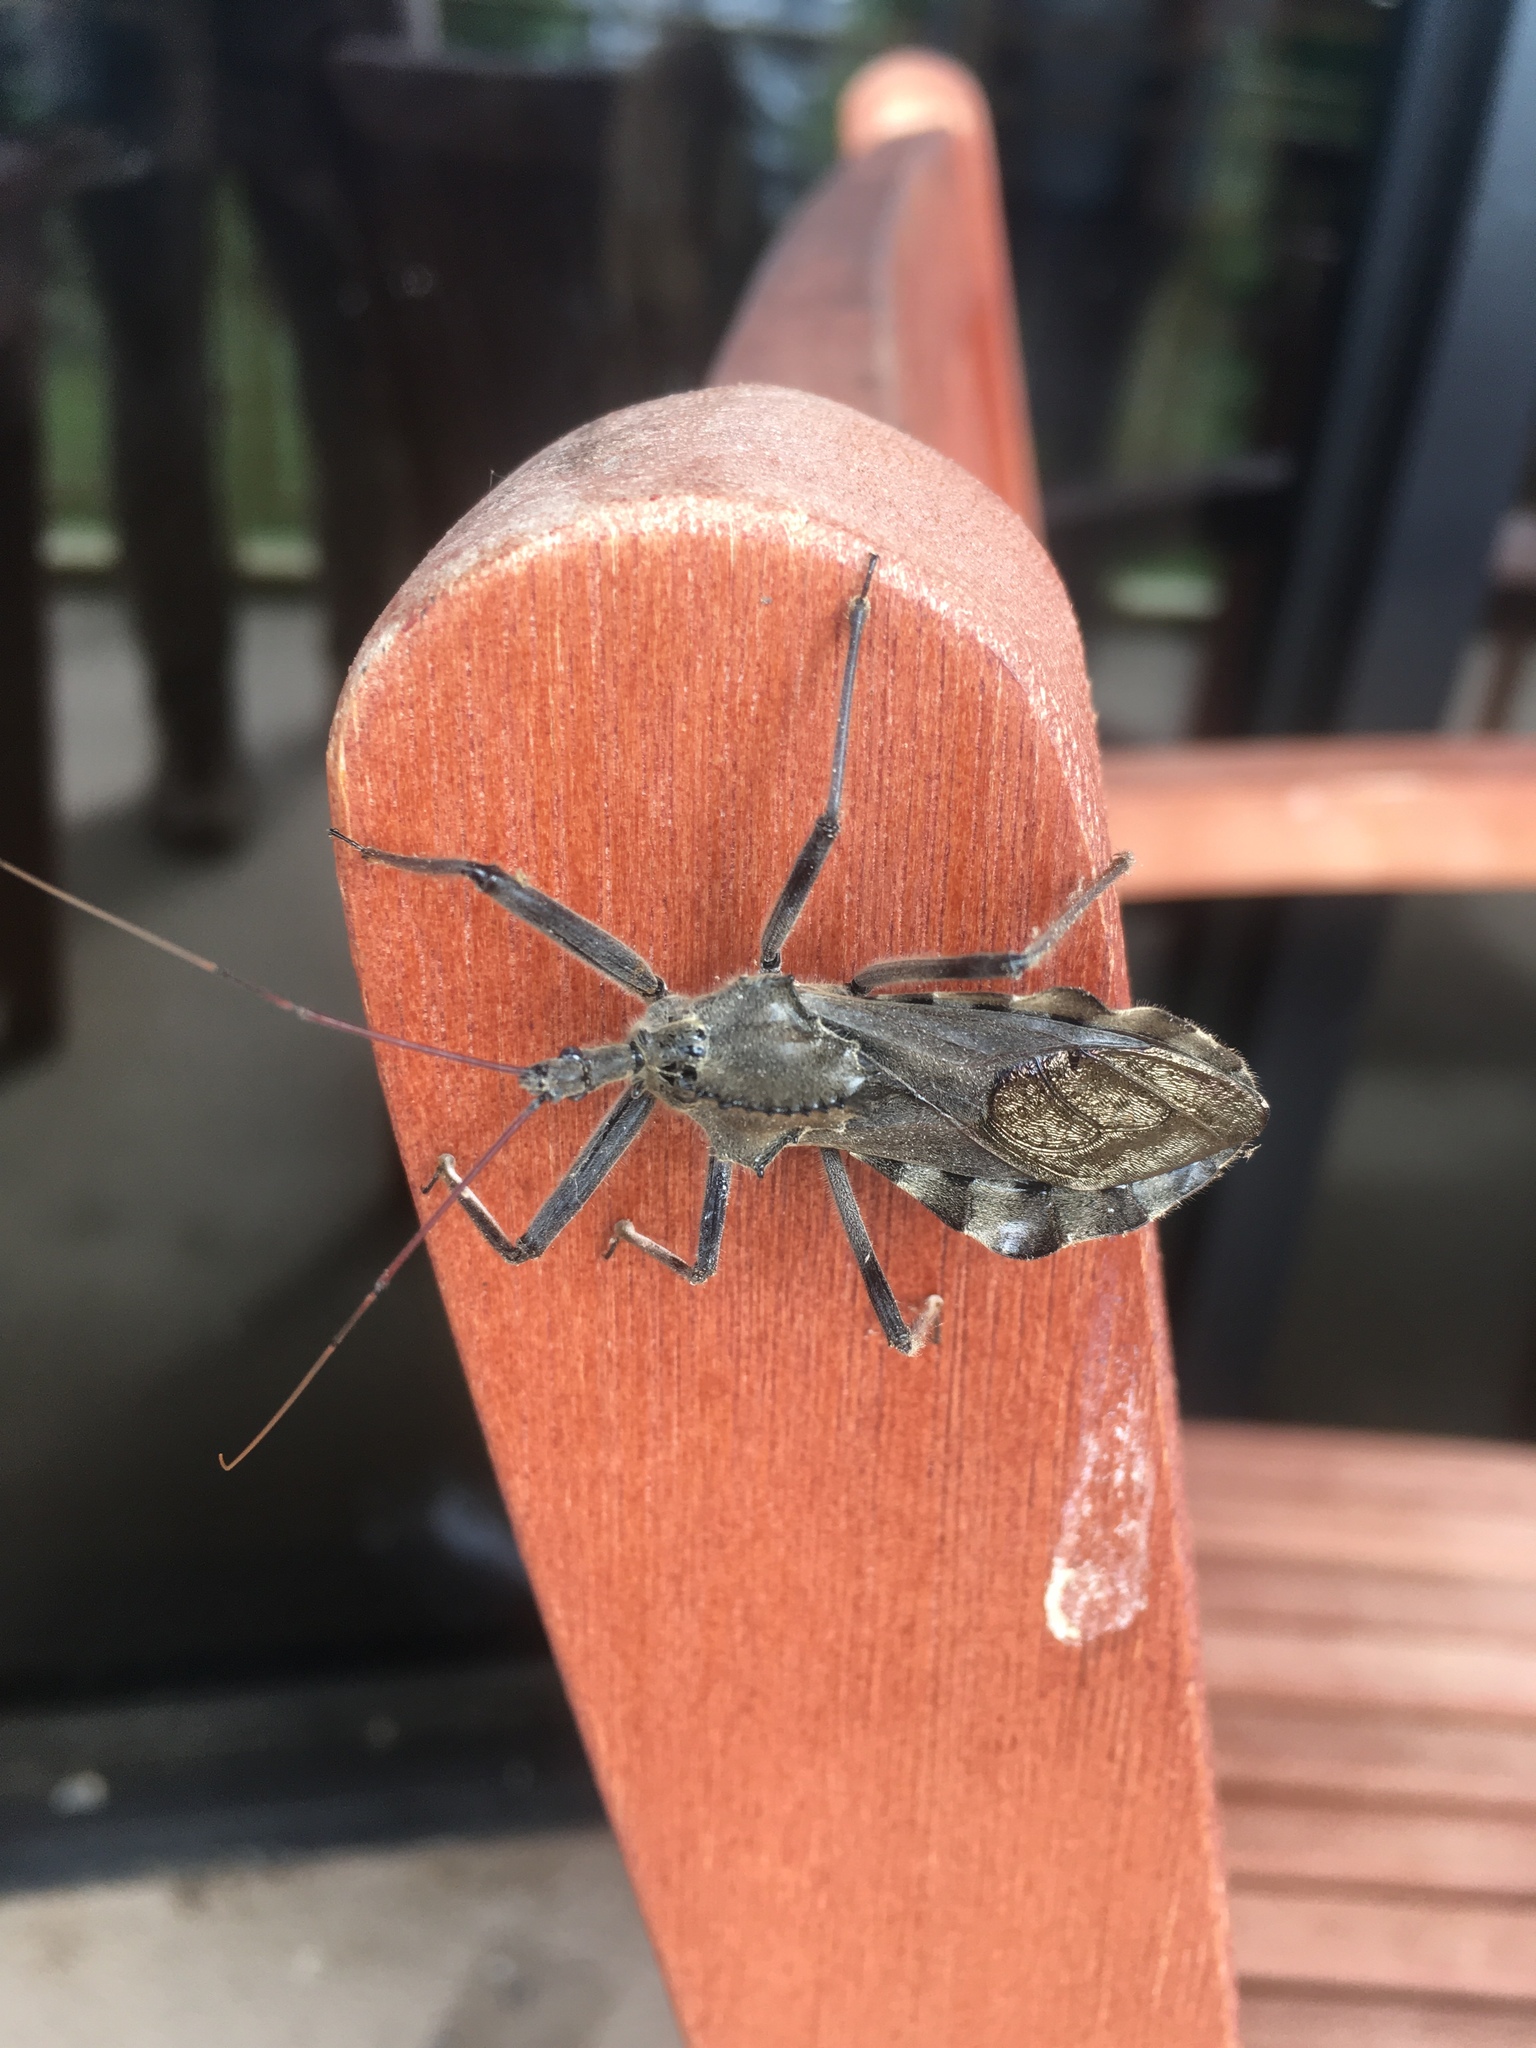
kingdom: Animalia
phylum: Arthropoda
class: Insecta
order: Hemiptera
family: Reduviidae
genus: Arilus
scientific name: Arilus cristatus
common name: North american wheel bug
